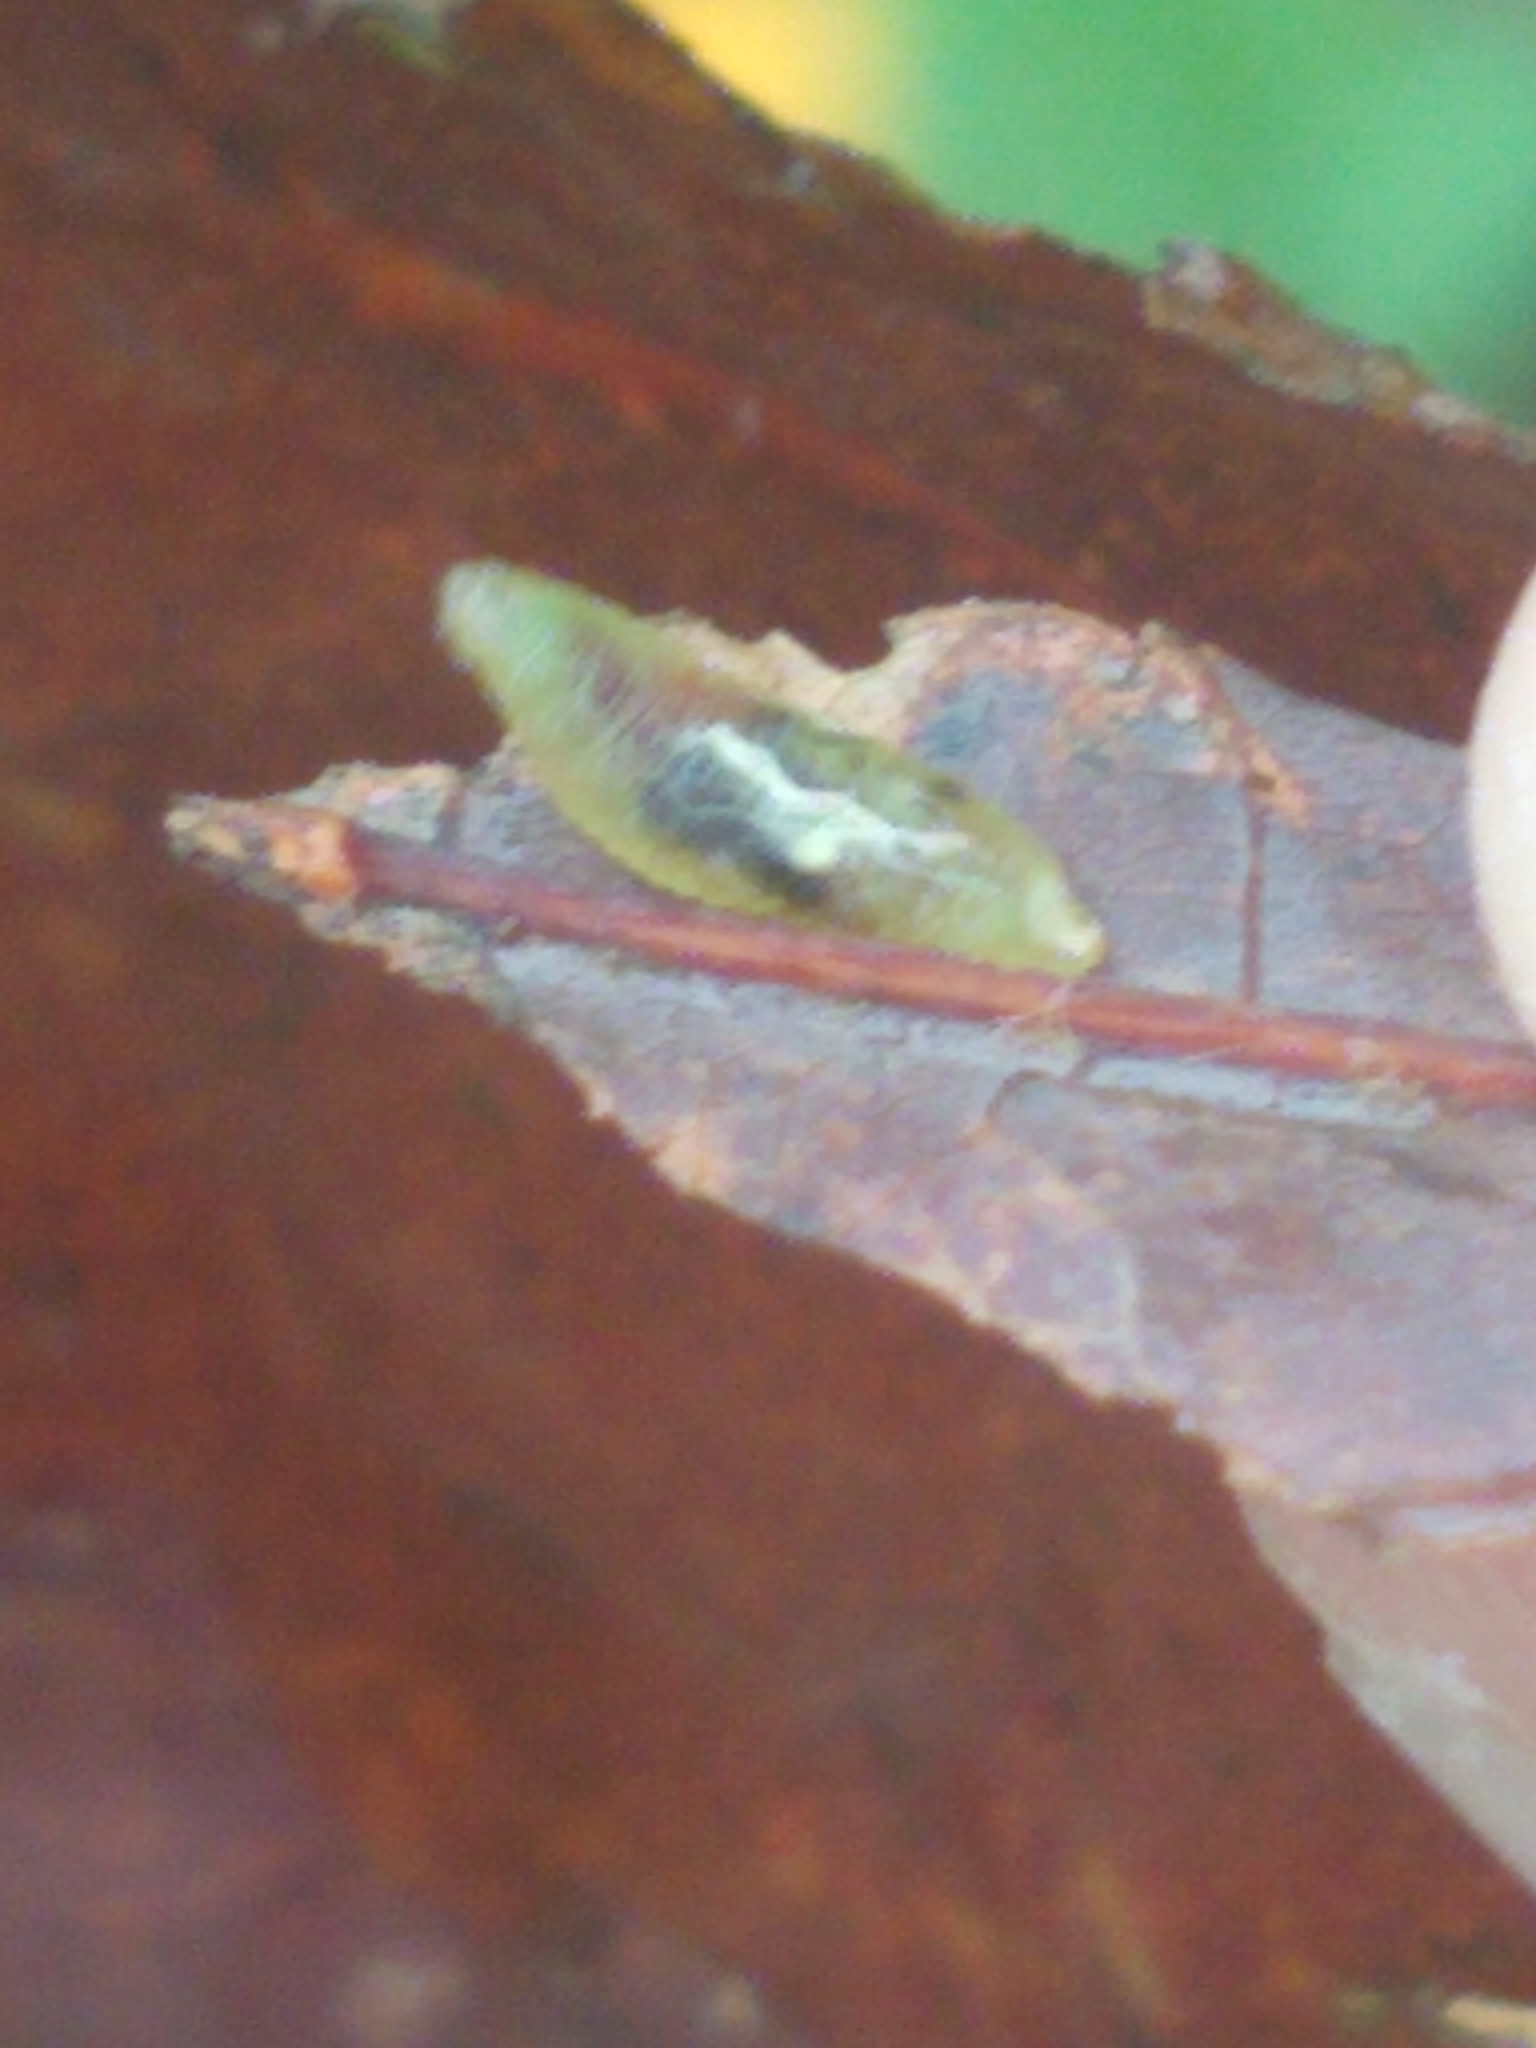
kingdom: Animalia
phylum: Arthropoda
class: Insecta
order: Diptera
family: Syrphidae
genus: Toxomerus
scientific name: Toxomerus
